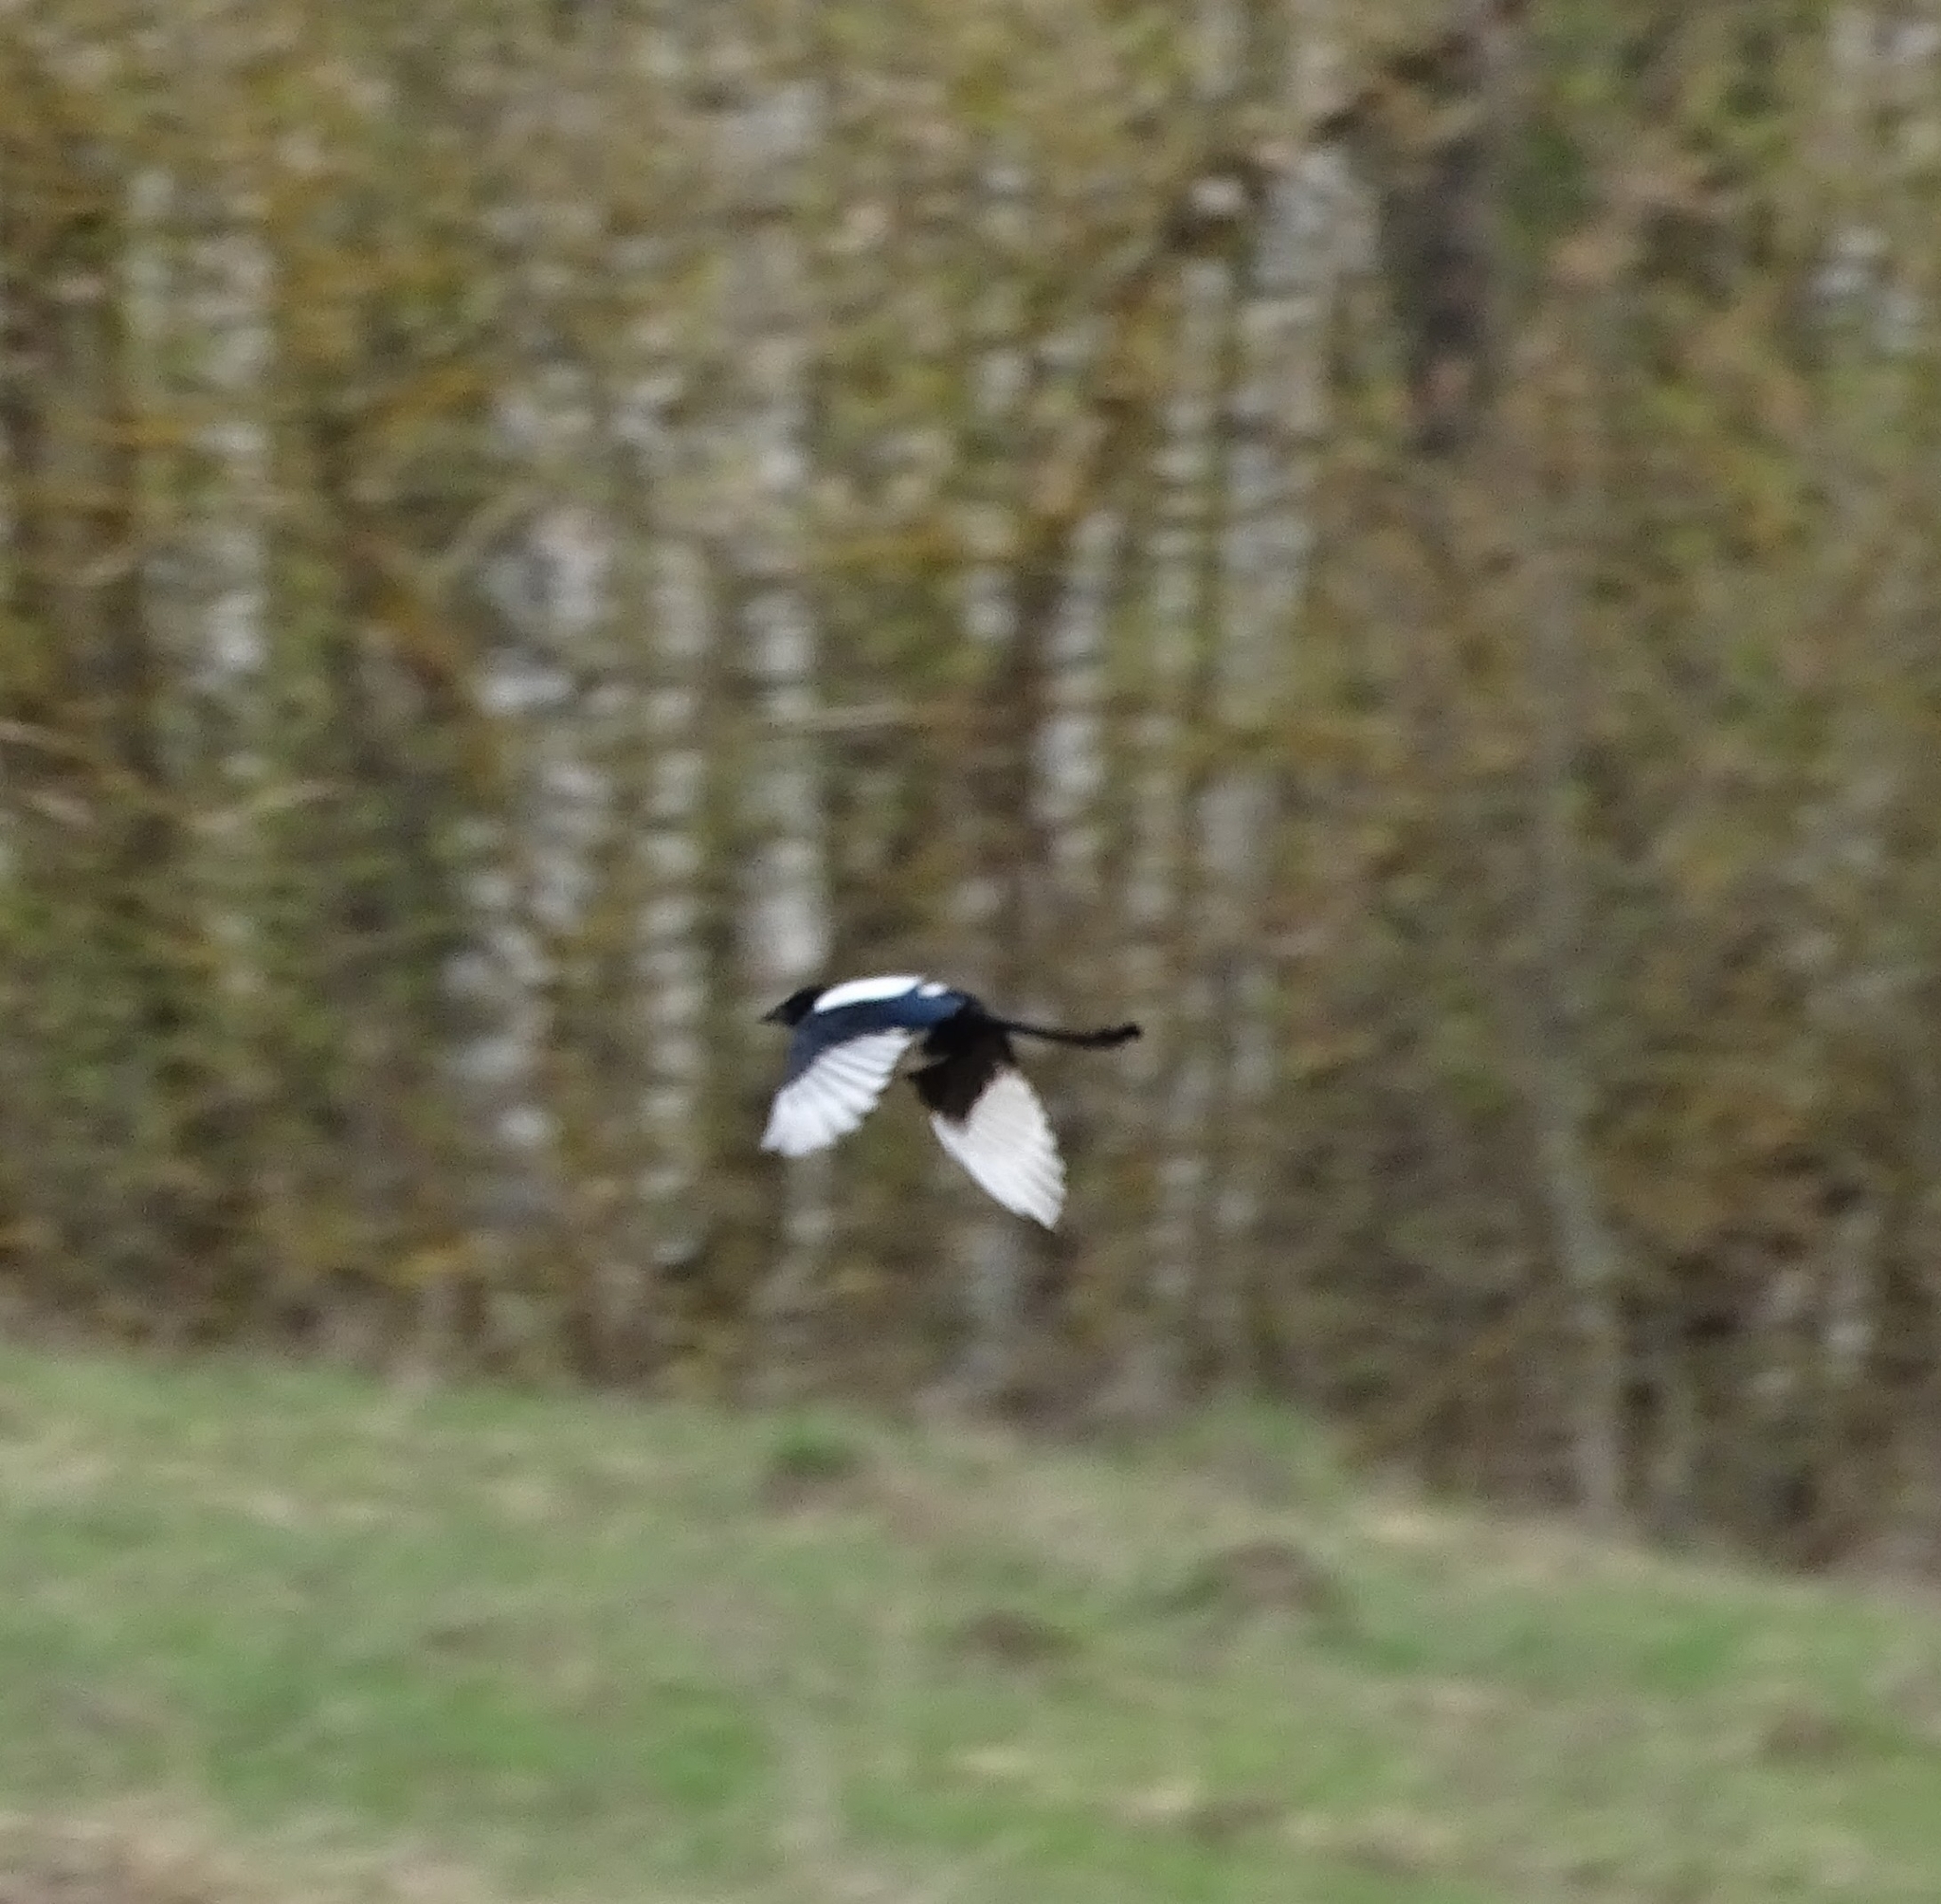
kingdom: Animalia
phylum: Chordata
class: Aves
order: Passeriformes
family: Corvidae
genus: Pica
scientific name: Pica pica
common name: Eurasian magpie
